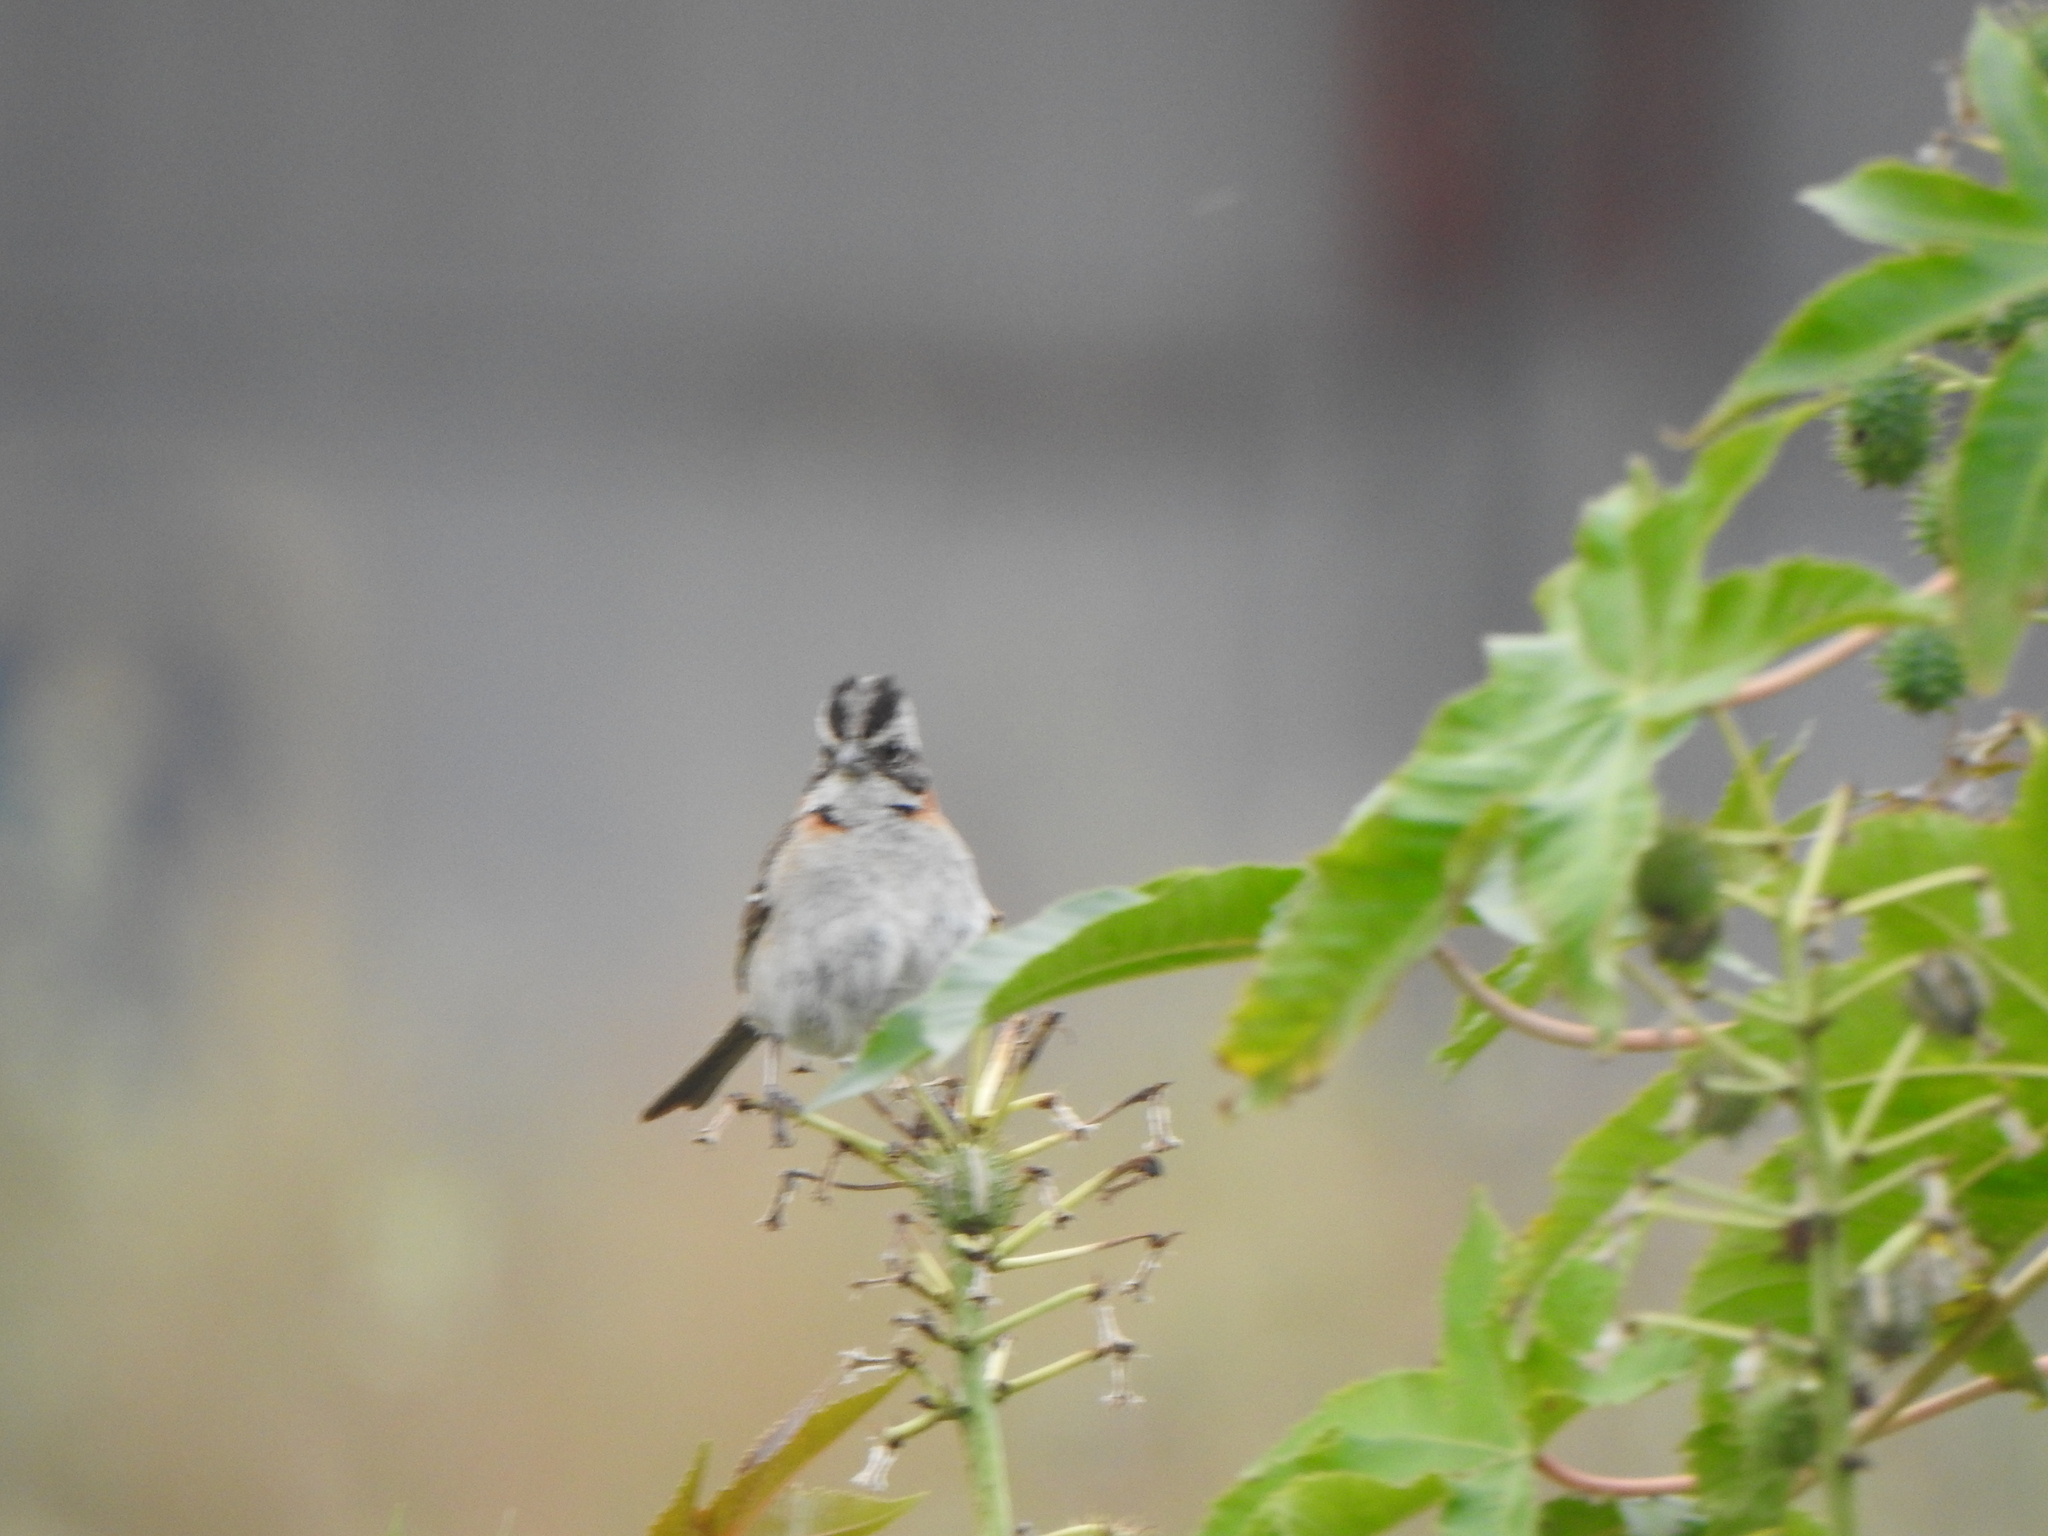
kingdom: Animalia
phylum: Chordata
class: Aves
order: Passeriformes
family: Passerellidae
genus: Zonotrichia
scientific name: Zonotrichia capensis
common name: Rufous-collared sparrow
